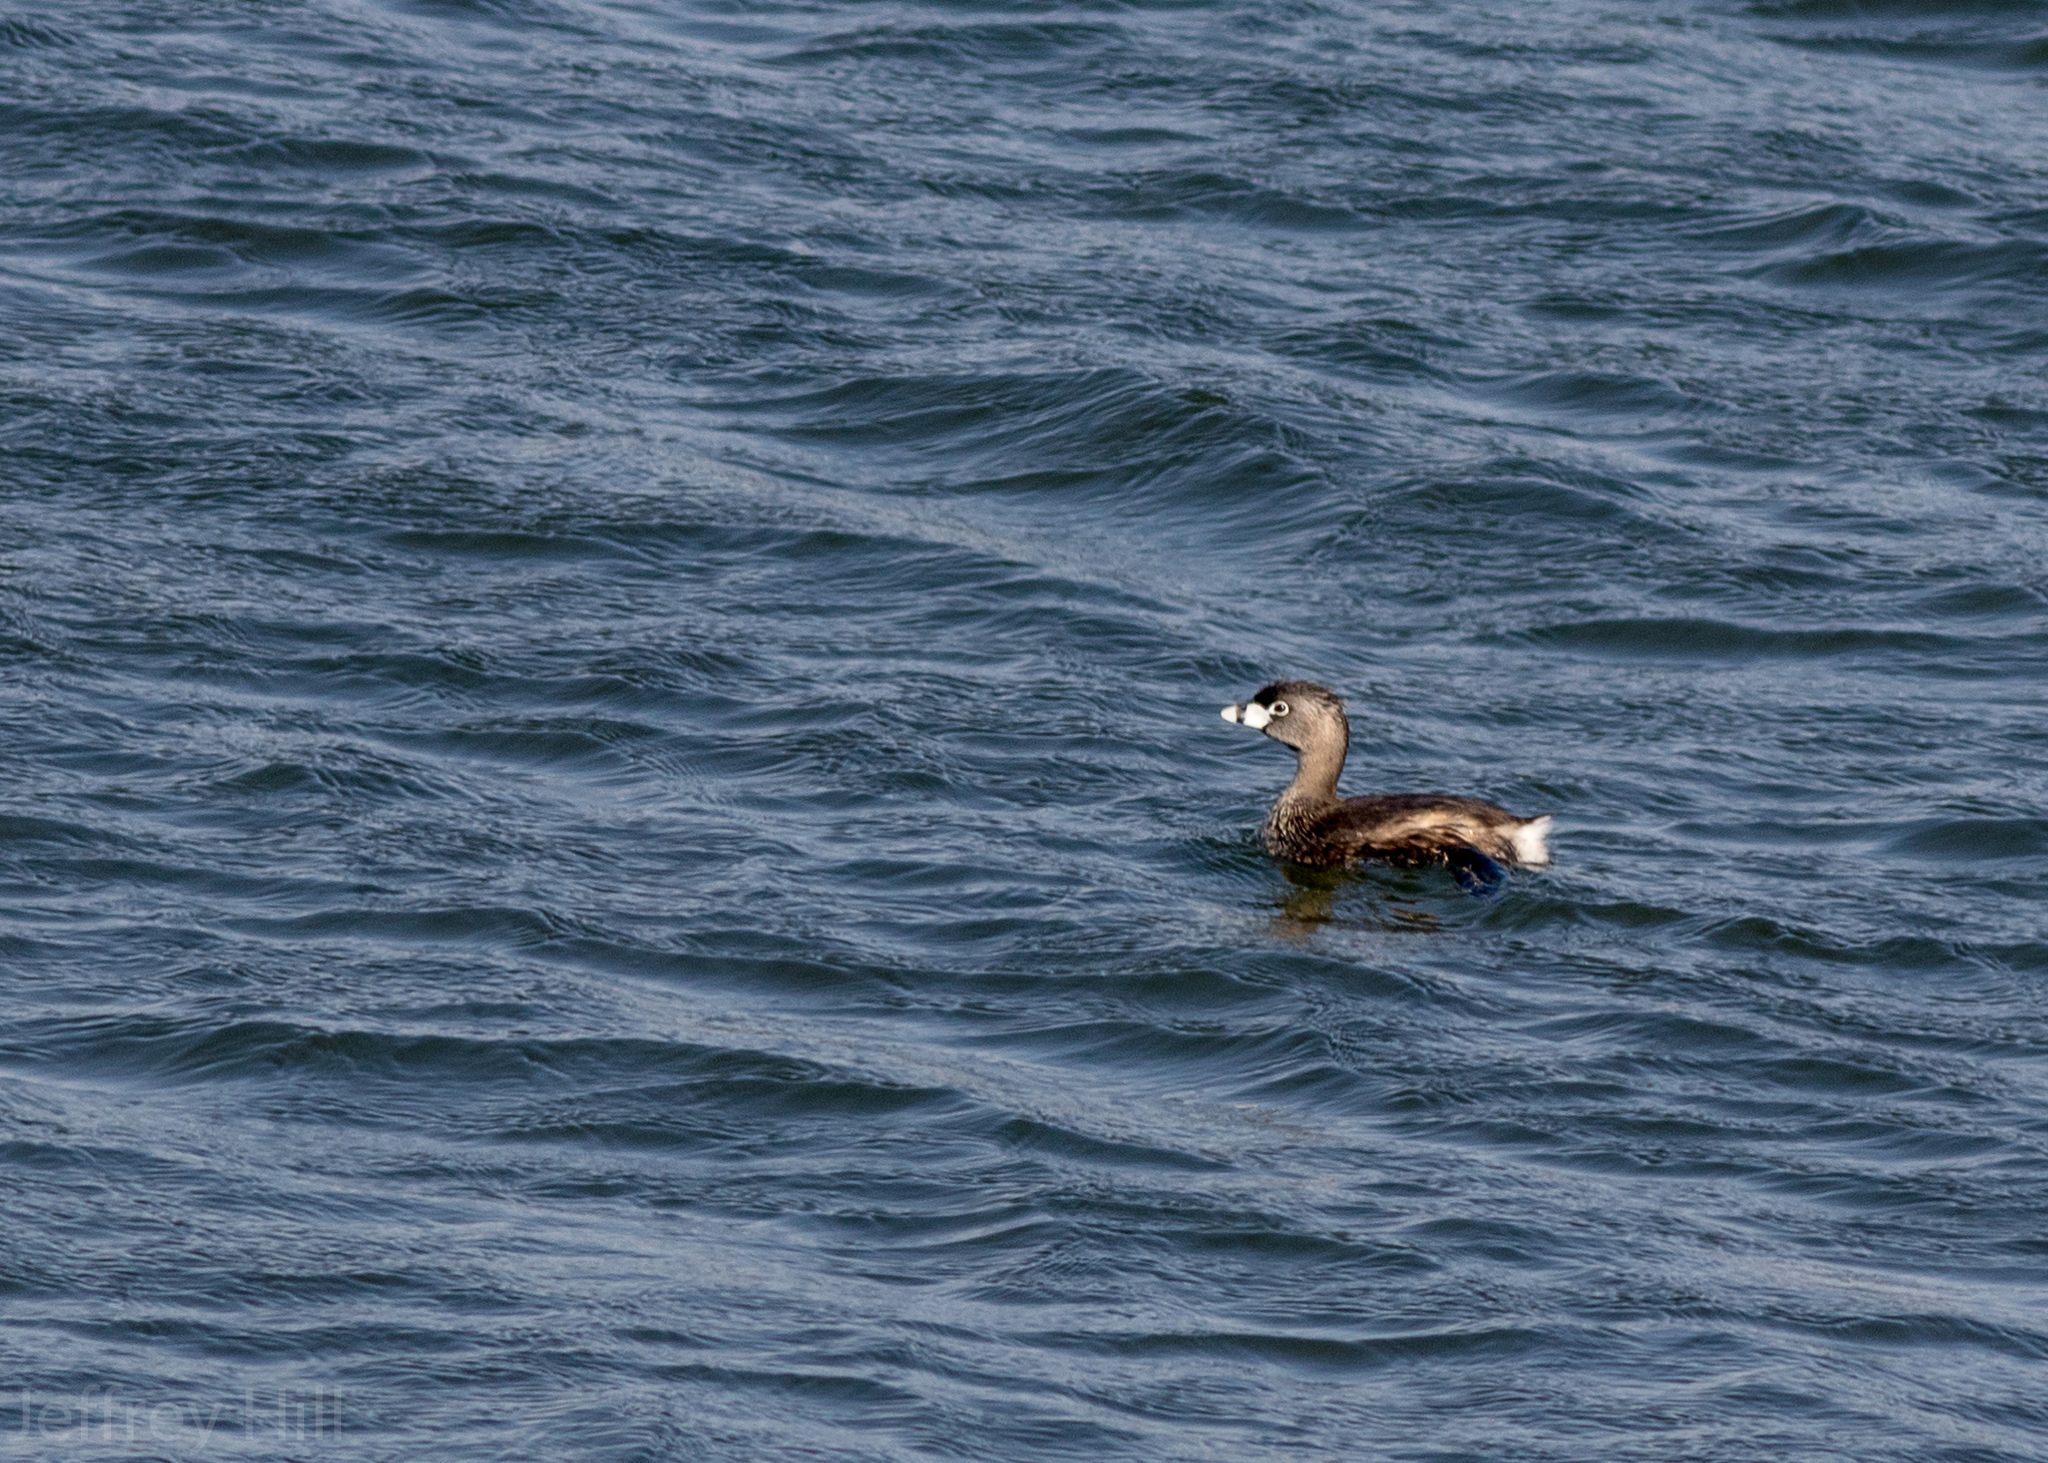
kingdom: Animalia
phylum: Chordata
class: Aves
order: Podicipediformes
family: Podicipedidae
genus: Podilymbus
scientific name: Podilymbus podiceps
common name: Pied-billed grebe
